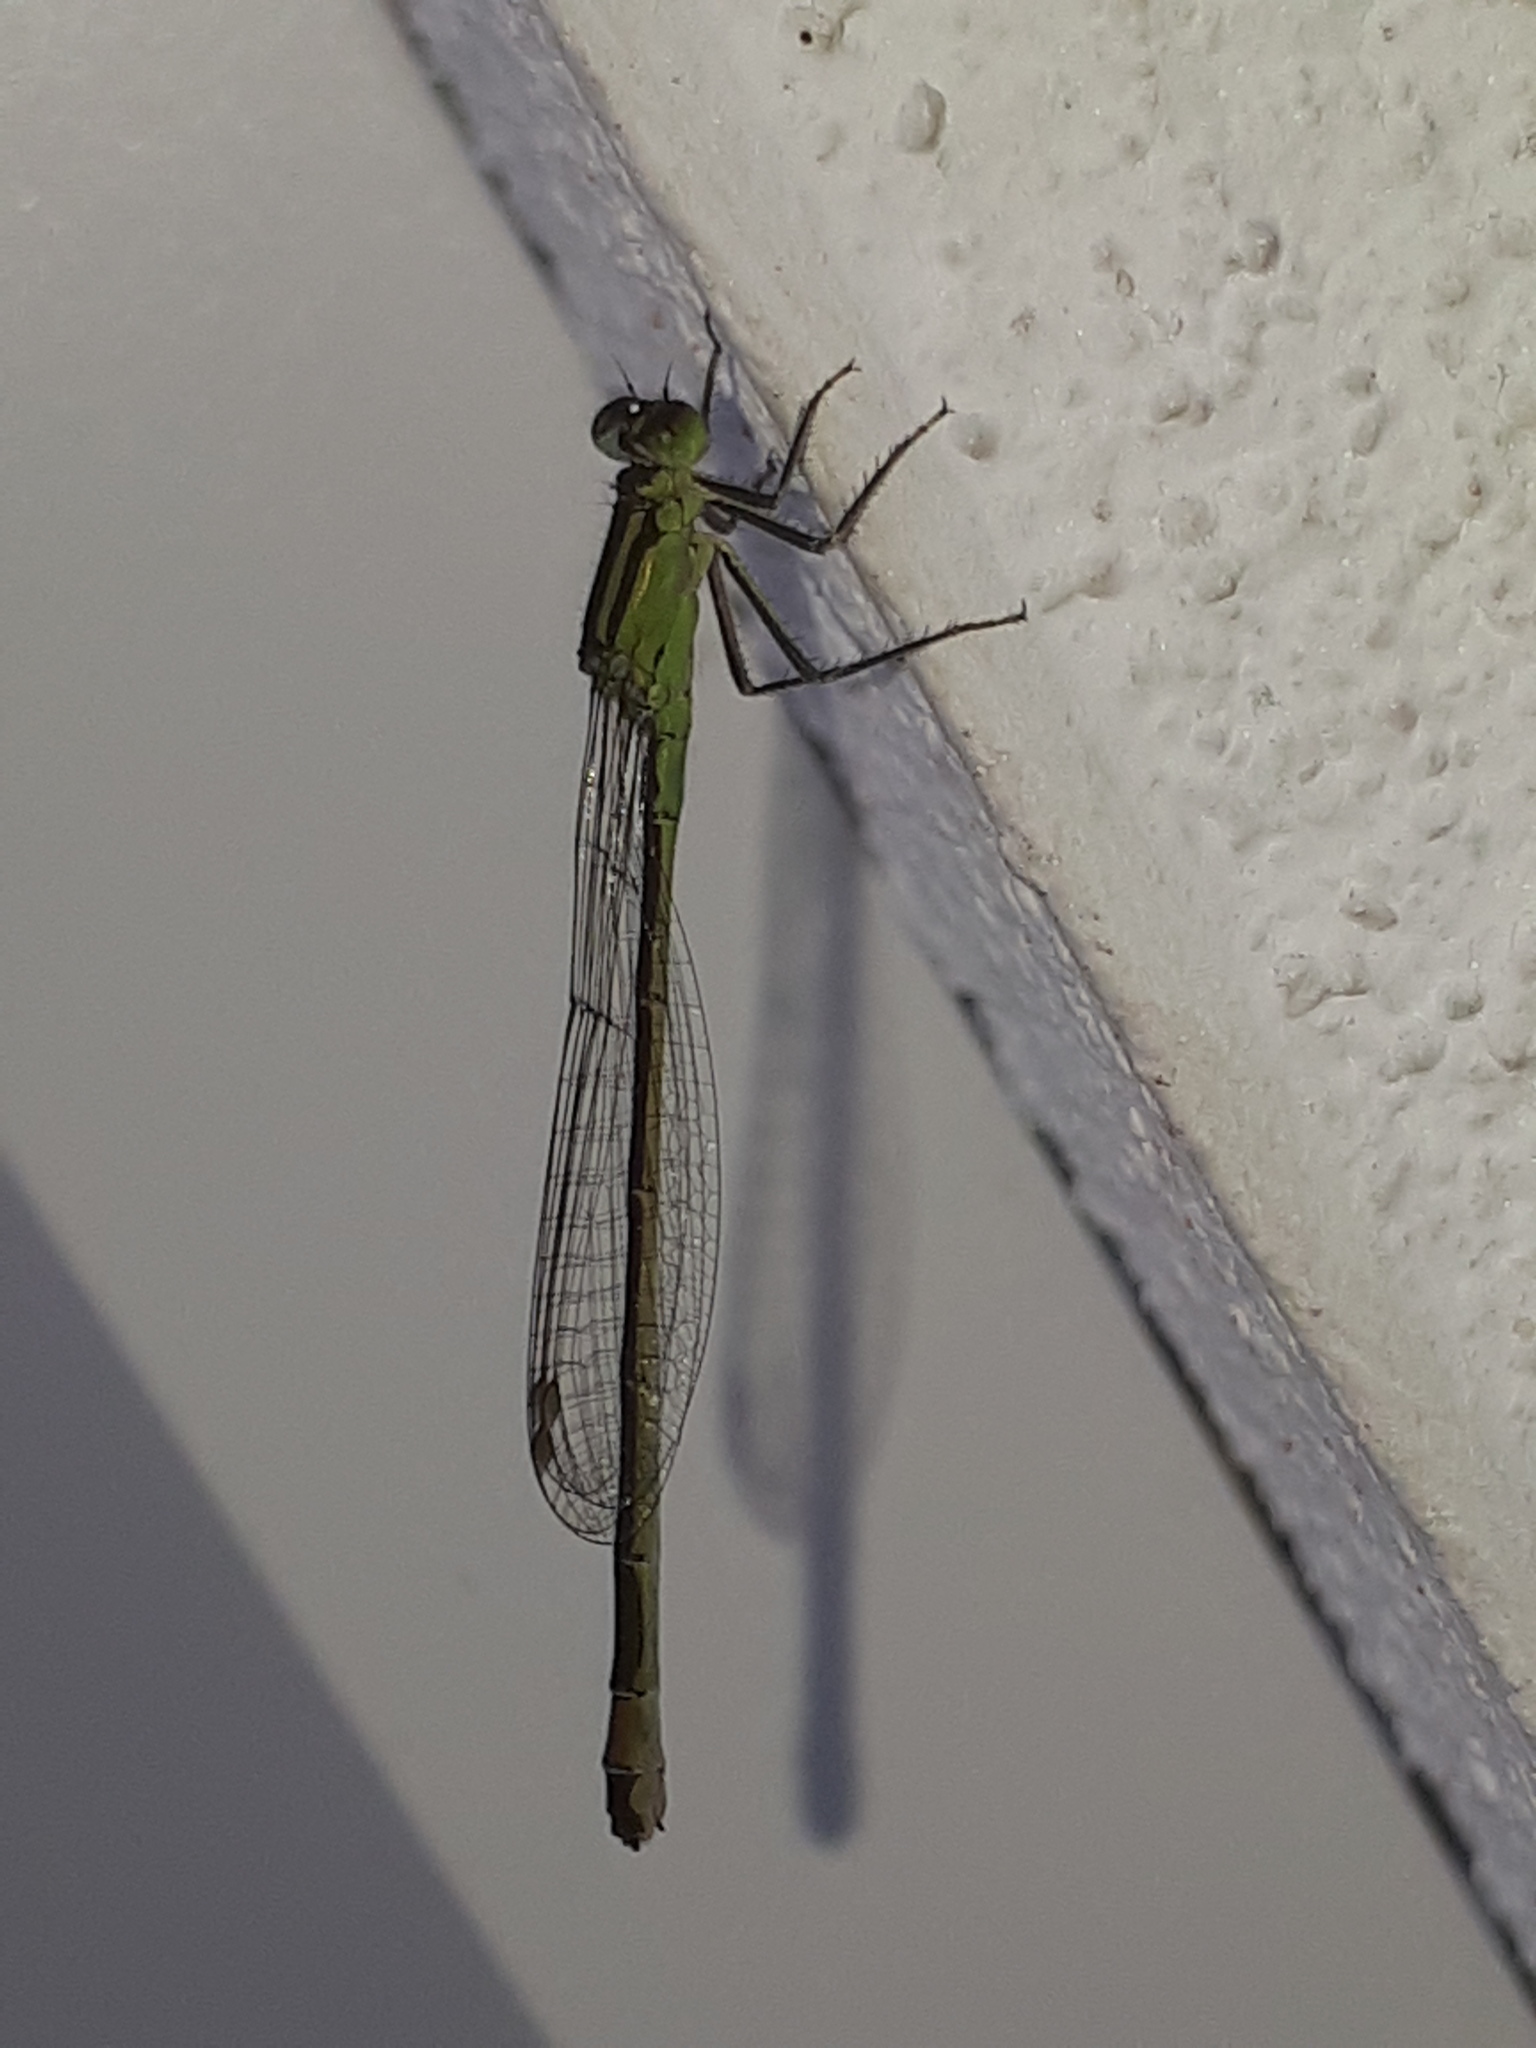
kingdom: Animalia
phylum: Arthropoda
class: Insecta
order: Odonata
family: Coenagrionidae
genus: Ischnura
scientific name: Ischnura elegans
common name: Blue-tailed damselfly
